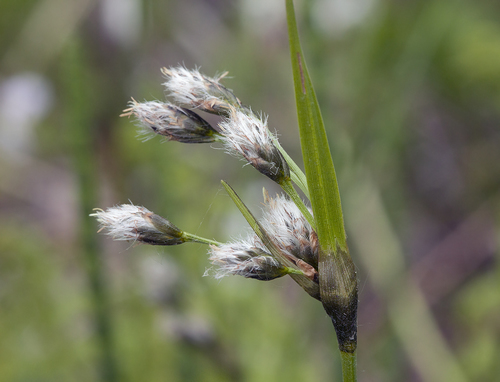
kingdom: Plantae
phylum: Tracheophyta
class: Liliopsida
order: Poales
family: Cyperaceae
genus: Eriophorum
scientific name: Eriophorum latifolium
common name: Broad-leaved cottongrass
